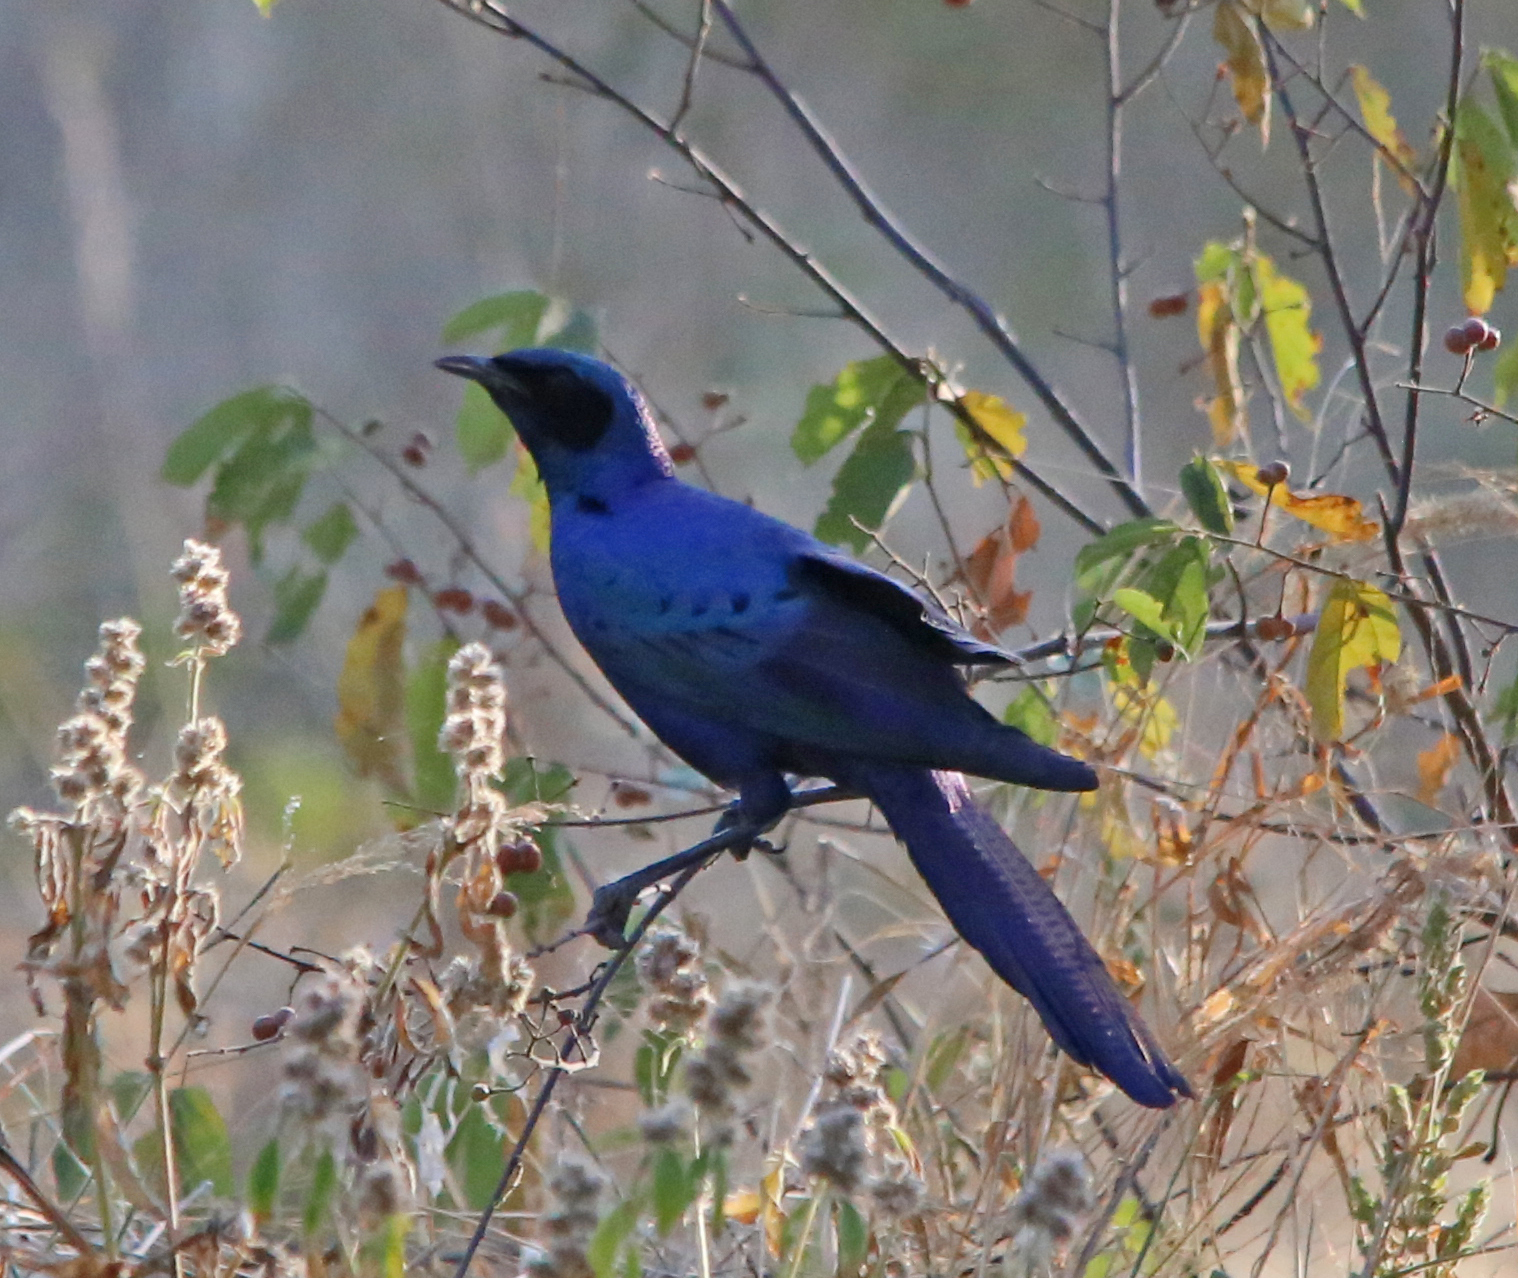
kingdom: Animalia
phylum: Chordata
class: Aves
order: Passeriformes
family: Sturnidae
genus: Lamprotornis
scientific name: Lamprotornis australis
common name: Burchell's starling
